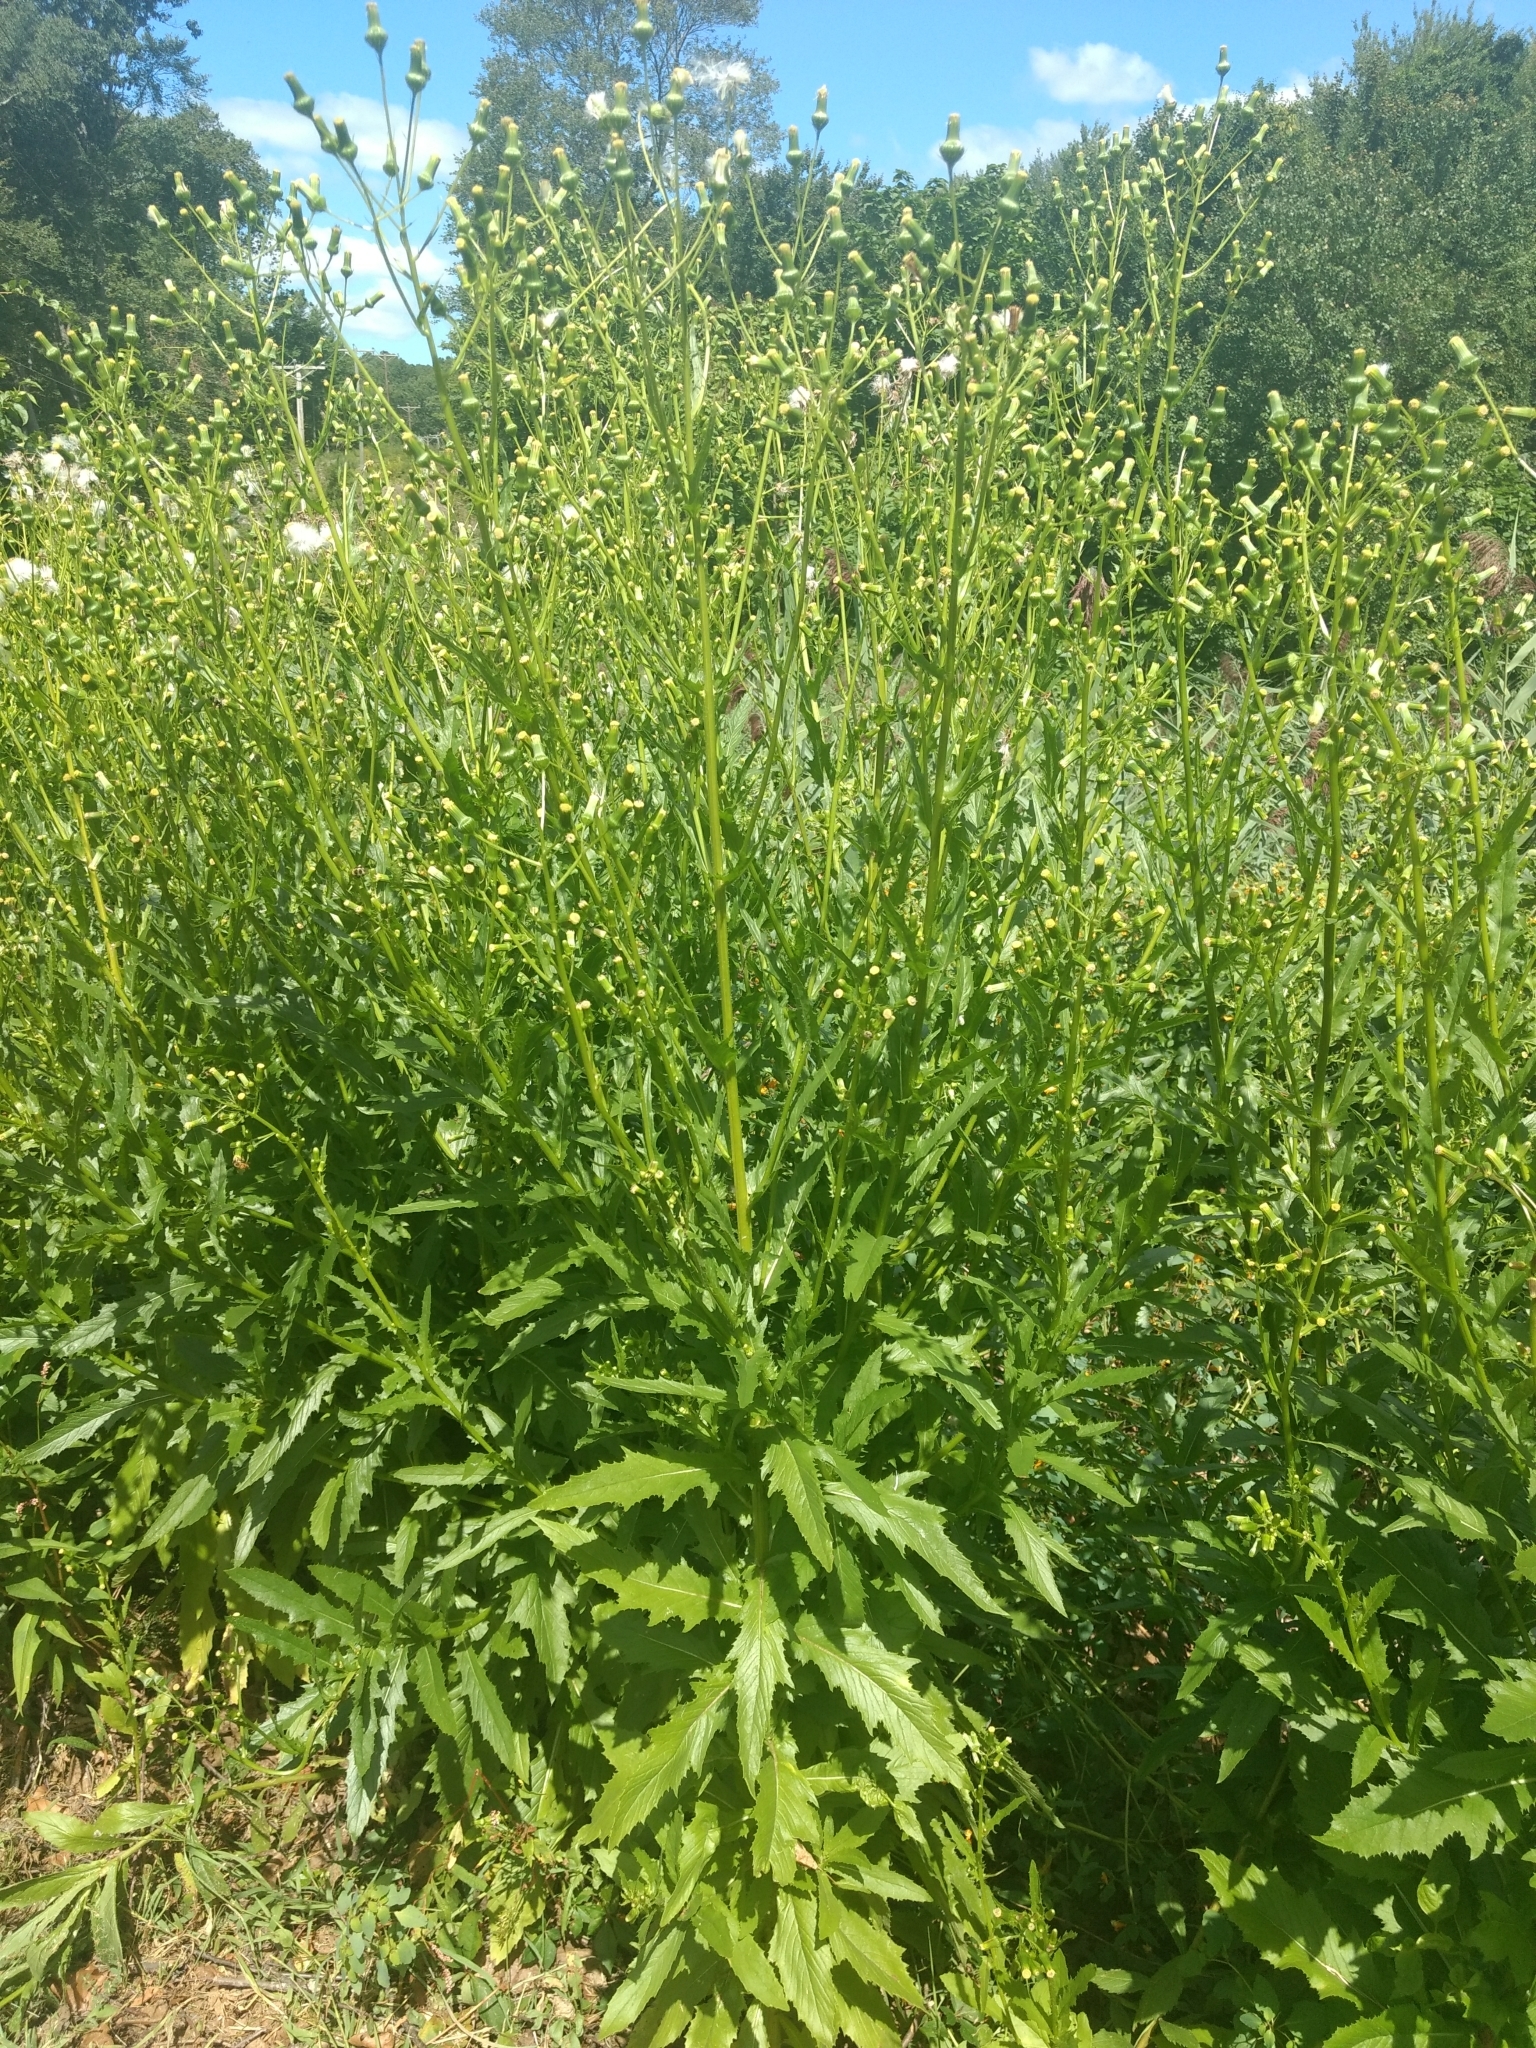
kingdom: Plantae
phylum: Tracheophyta
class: Magnoliopsida
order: Asterales
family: Asteraceae
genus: Erechtites
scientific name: Erechtites hieraciifolius
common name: American burnweed
